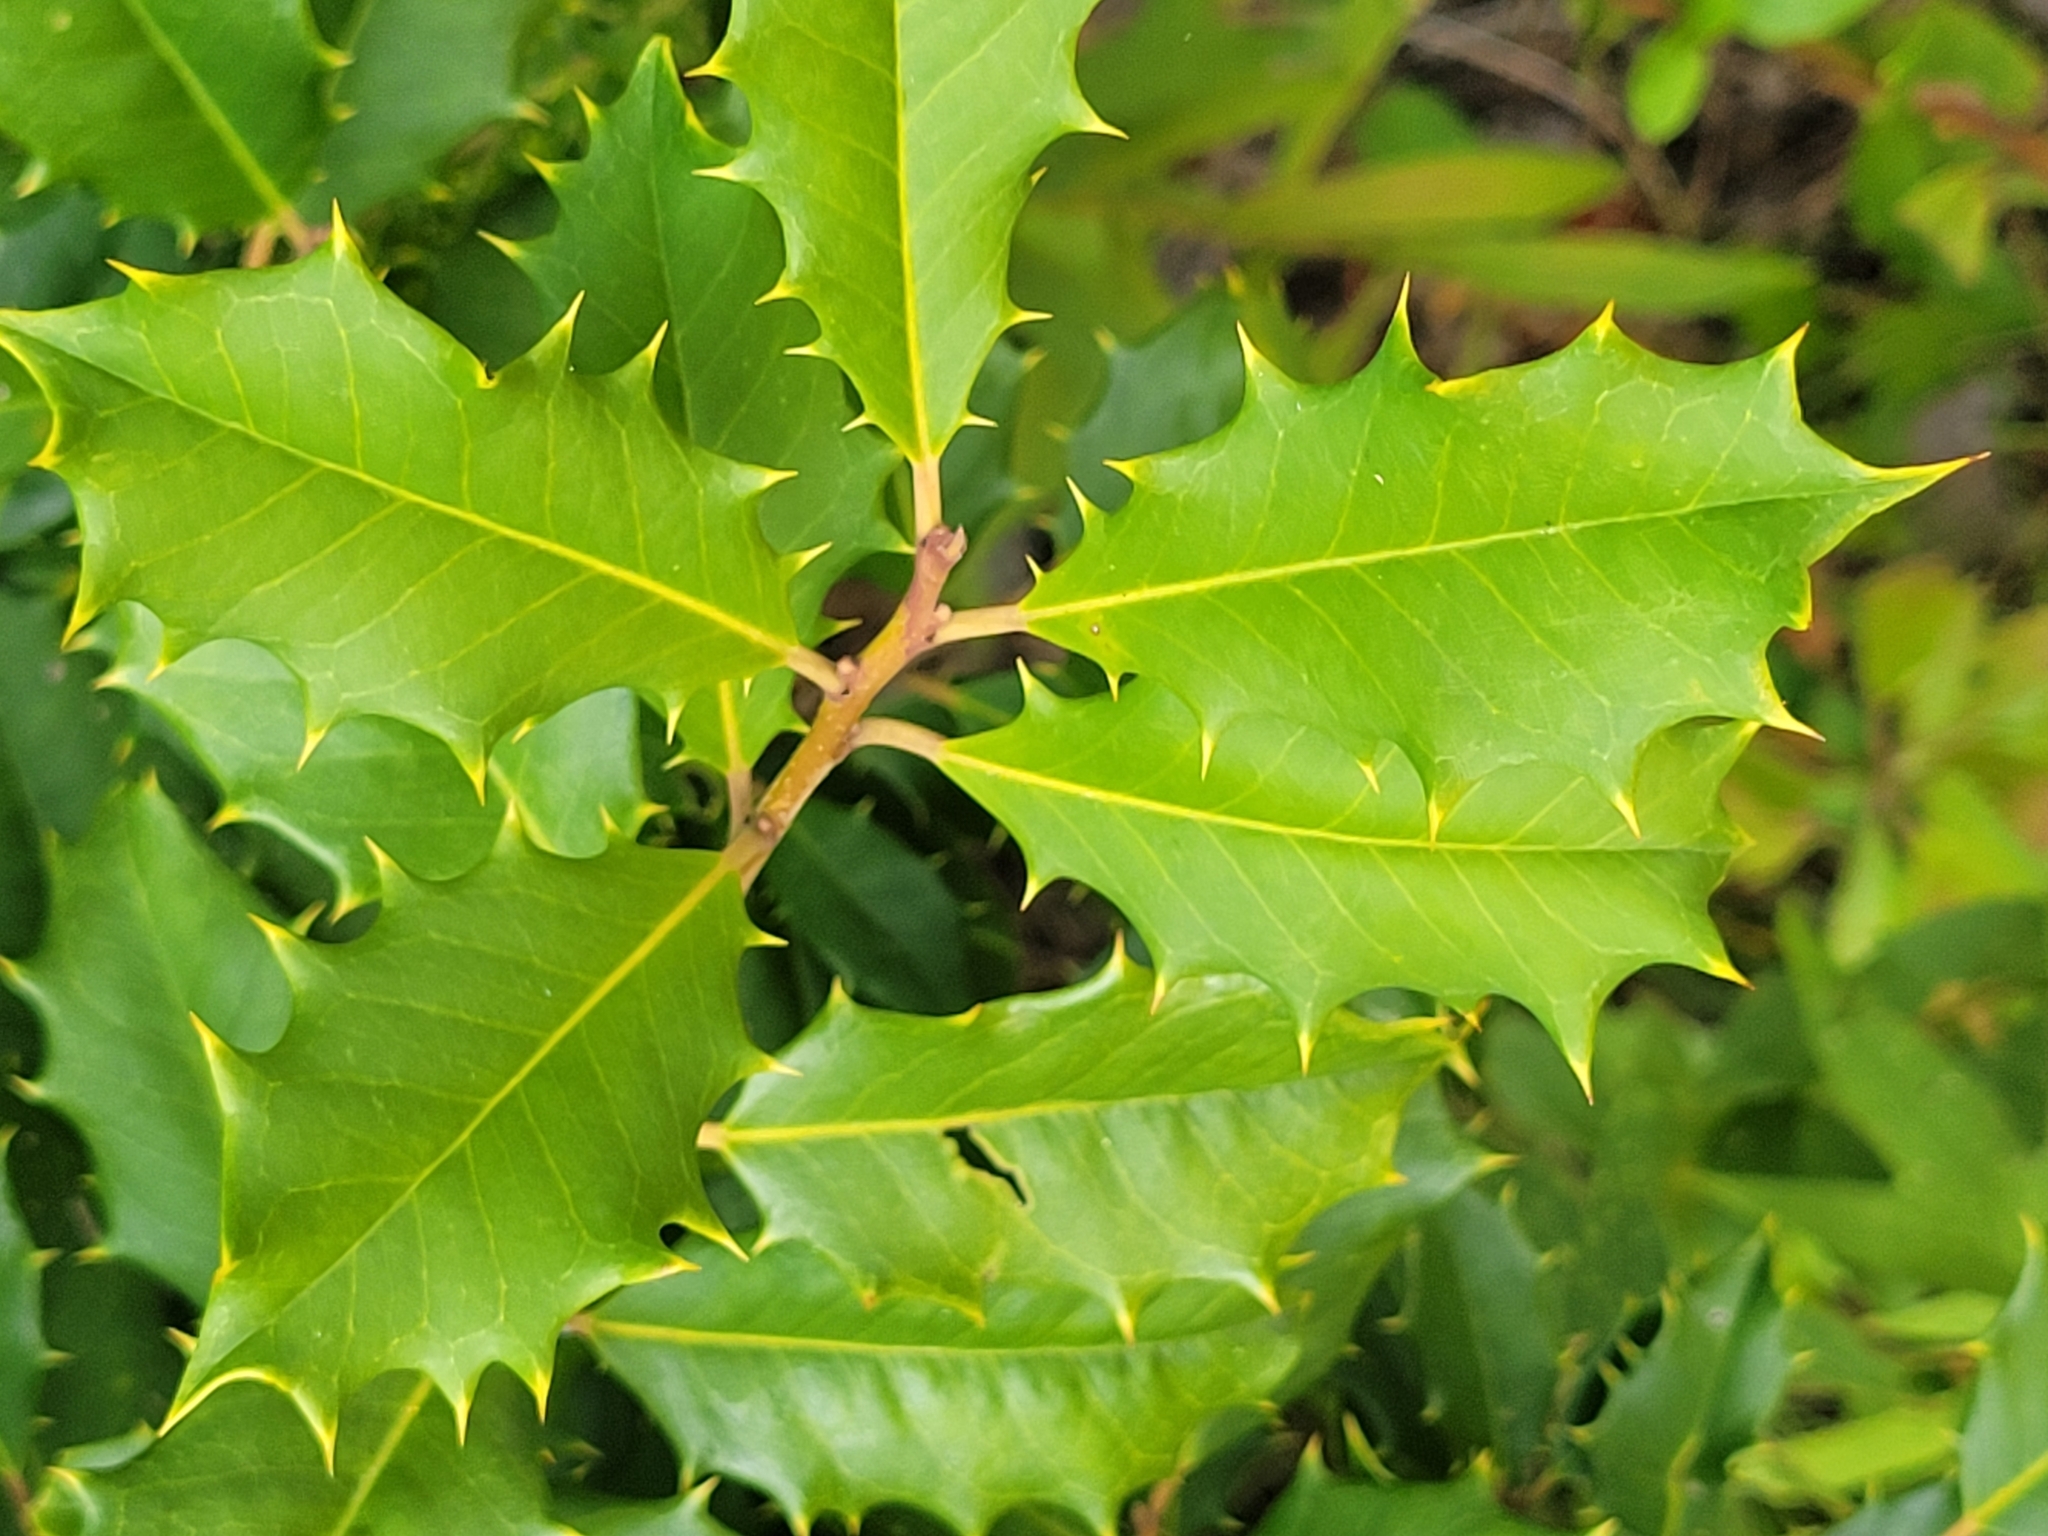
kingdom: Plantae
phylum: Tracheophyta
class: Magnoliopsida
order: Aquifoliales
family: Aquifoliaceae
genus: Ilex
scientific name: Ilex opaca
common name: American holly
